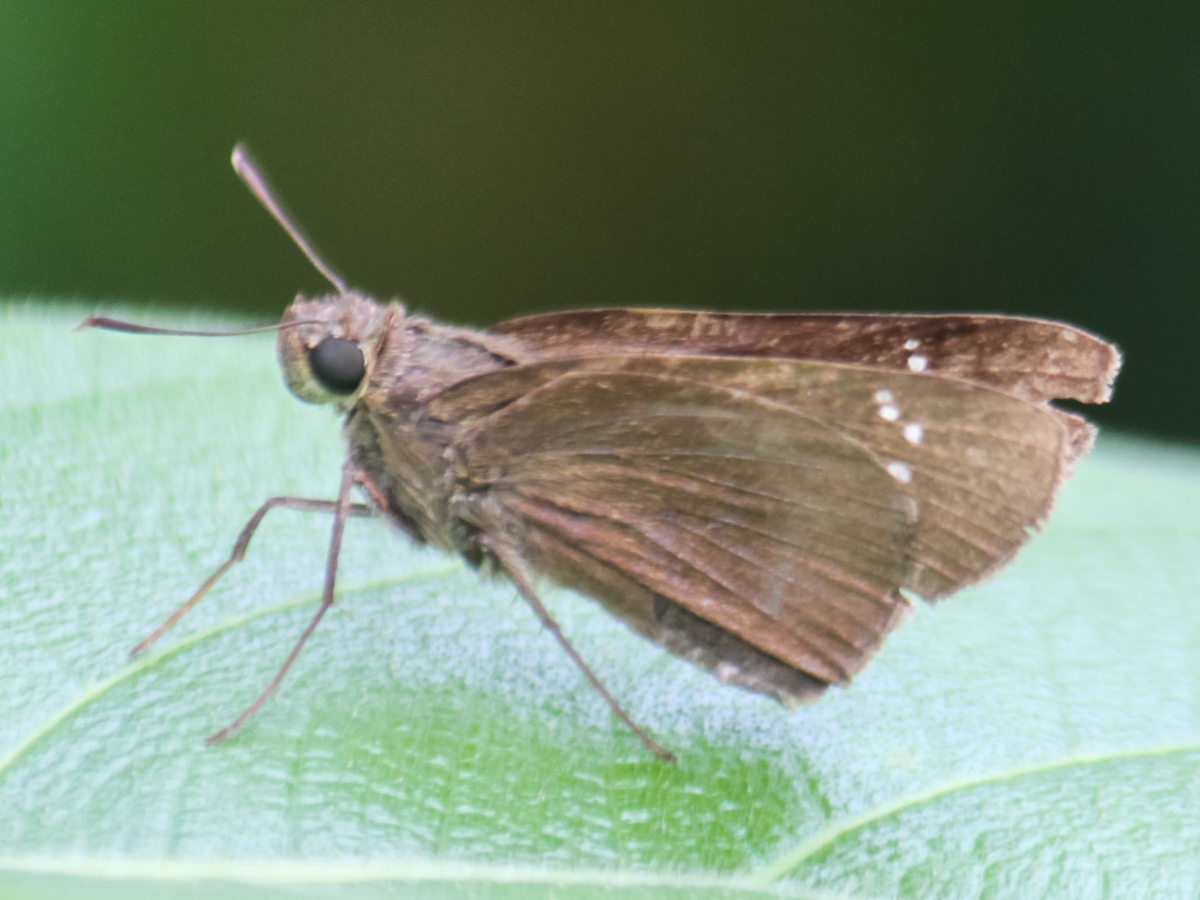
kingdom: Animalia
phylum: Arthropoda
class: Insecta
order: Lepidoptera
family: Hesperiidae
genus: Borbo
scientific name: Borbo cinnara
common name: Formosan swift
